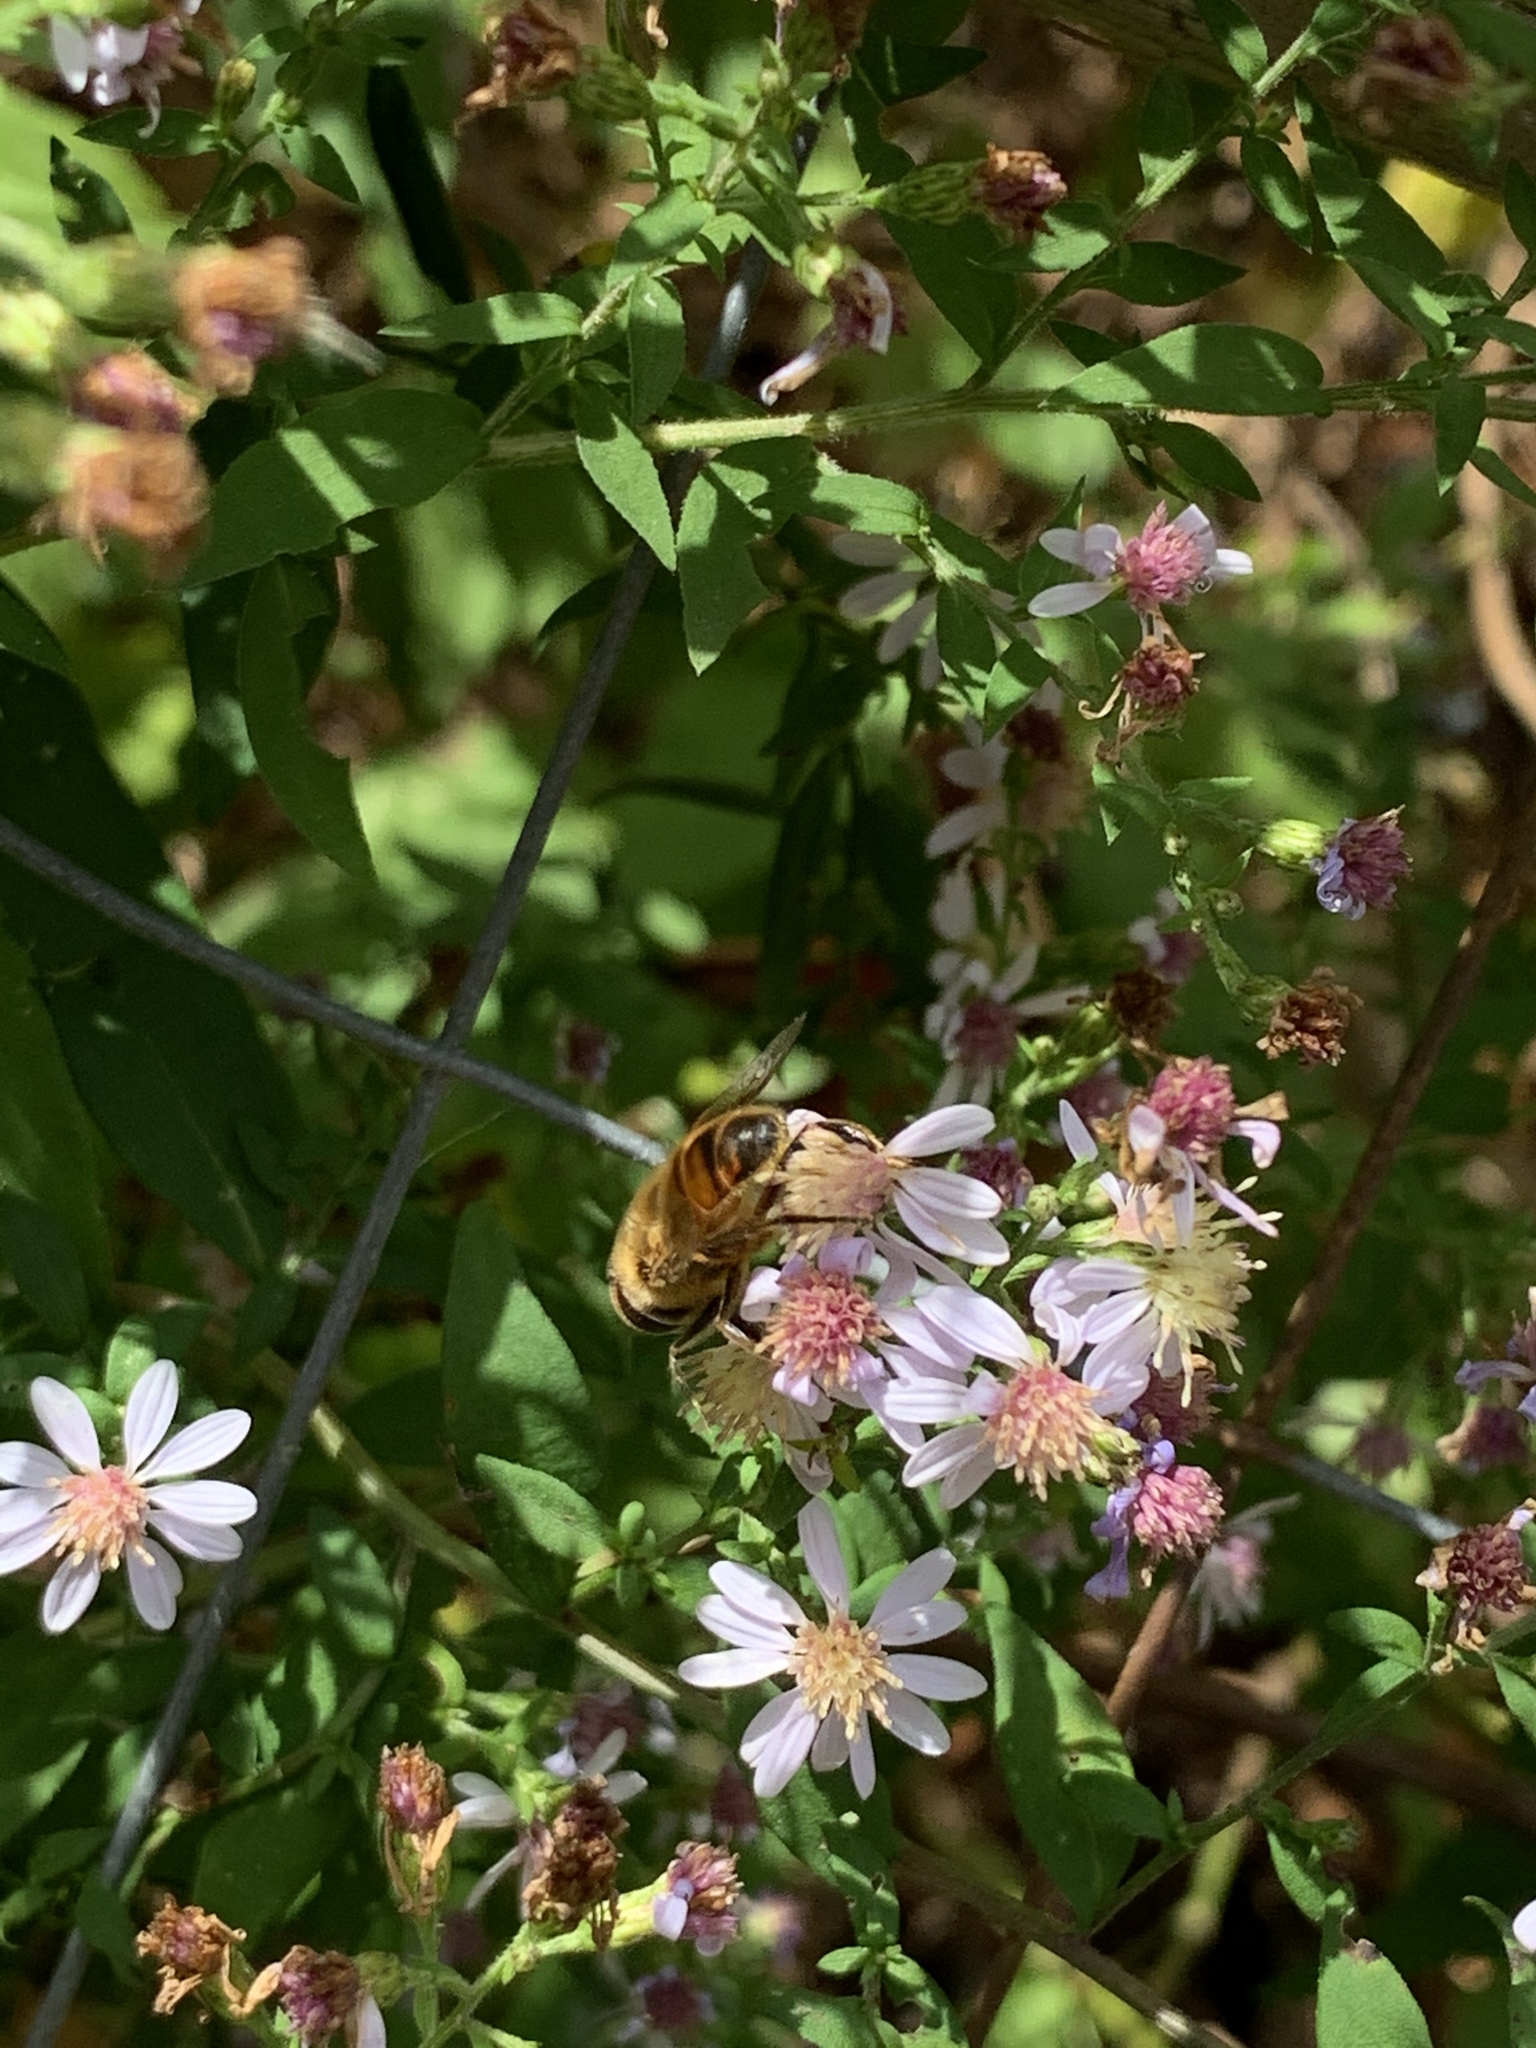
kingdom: Animalia
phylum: Arthropoda
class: Insecta
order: Diptera
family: Syrphidae
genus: Eristalis
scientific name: Eristalis tenax
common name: Drone fly
